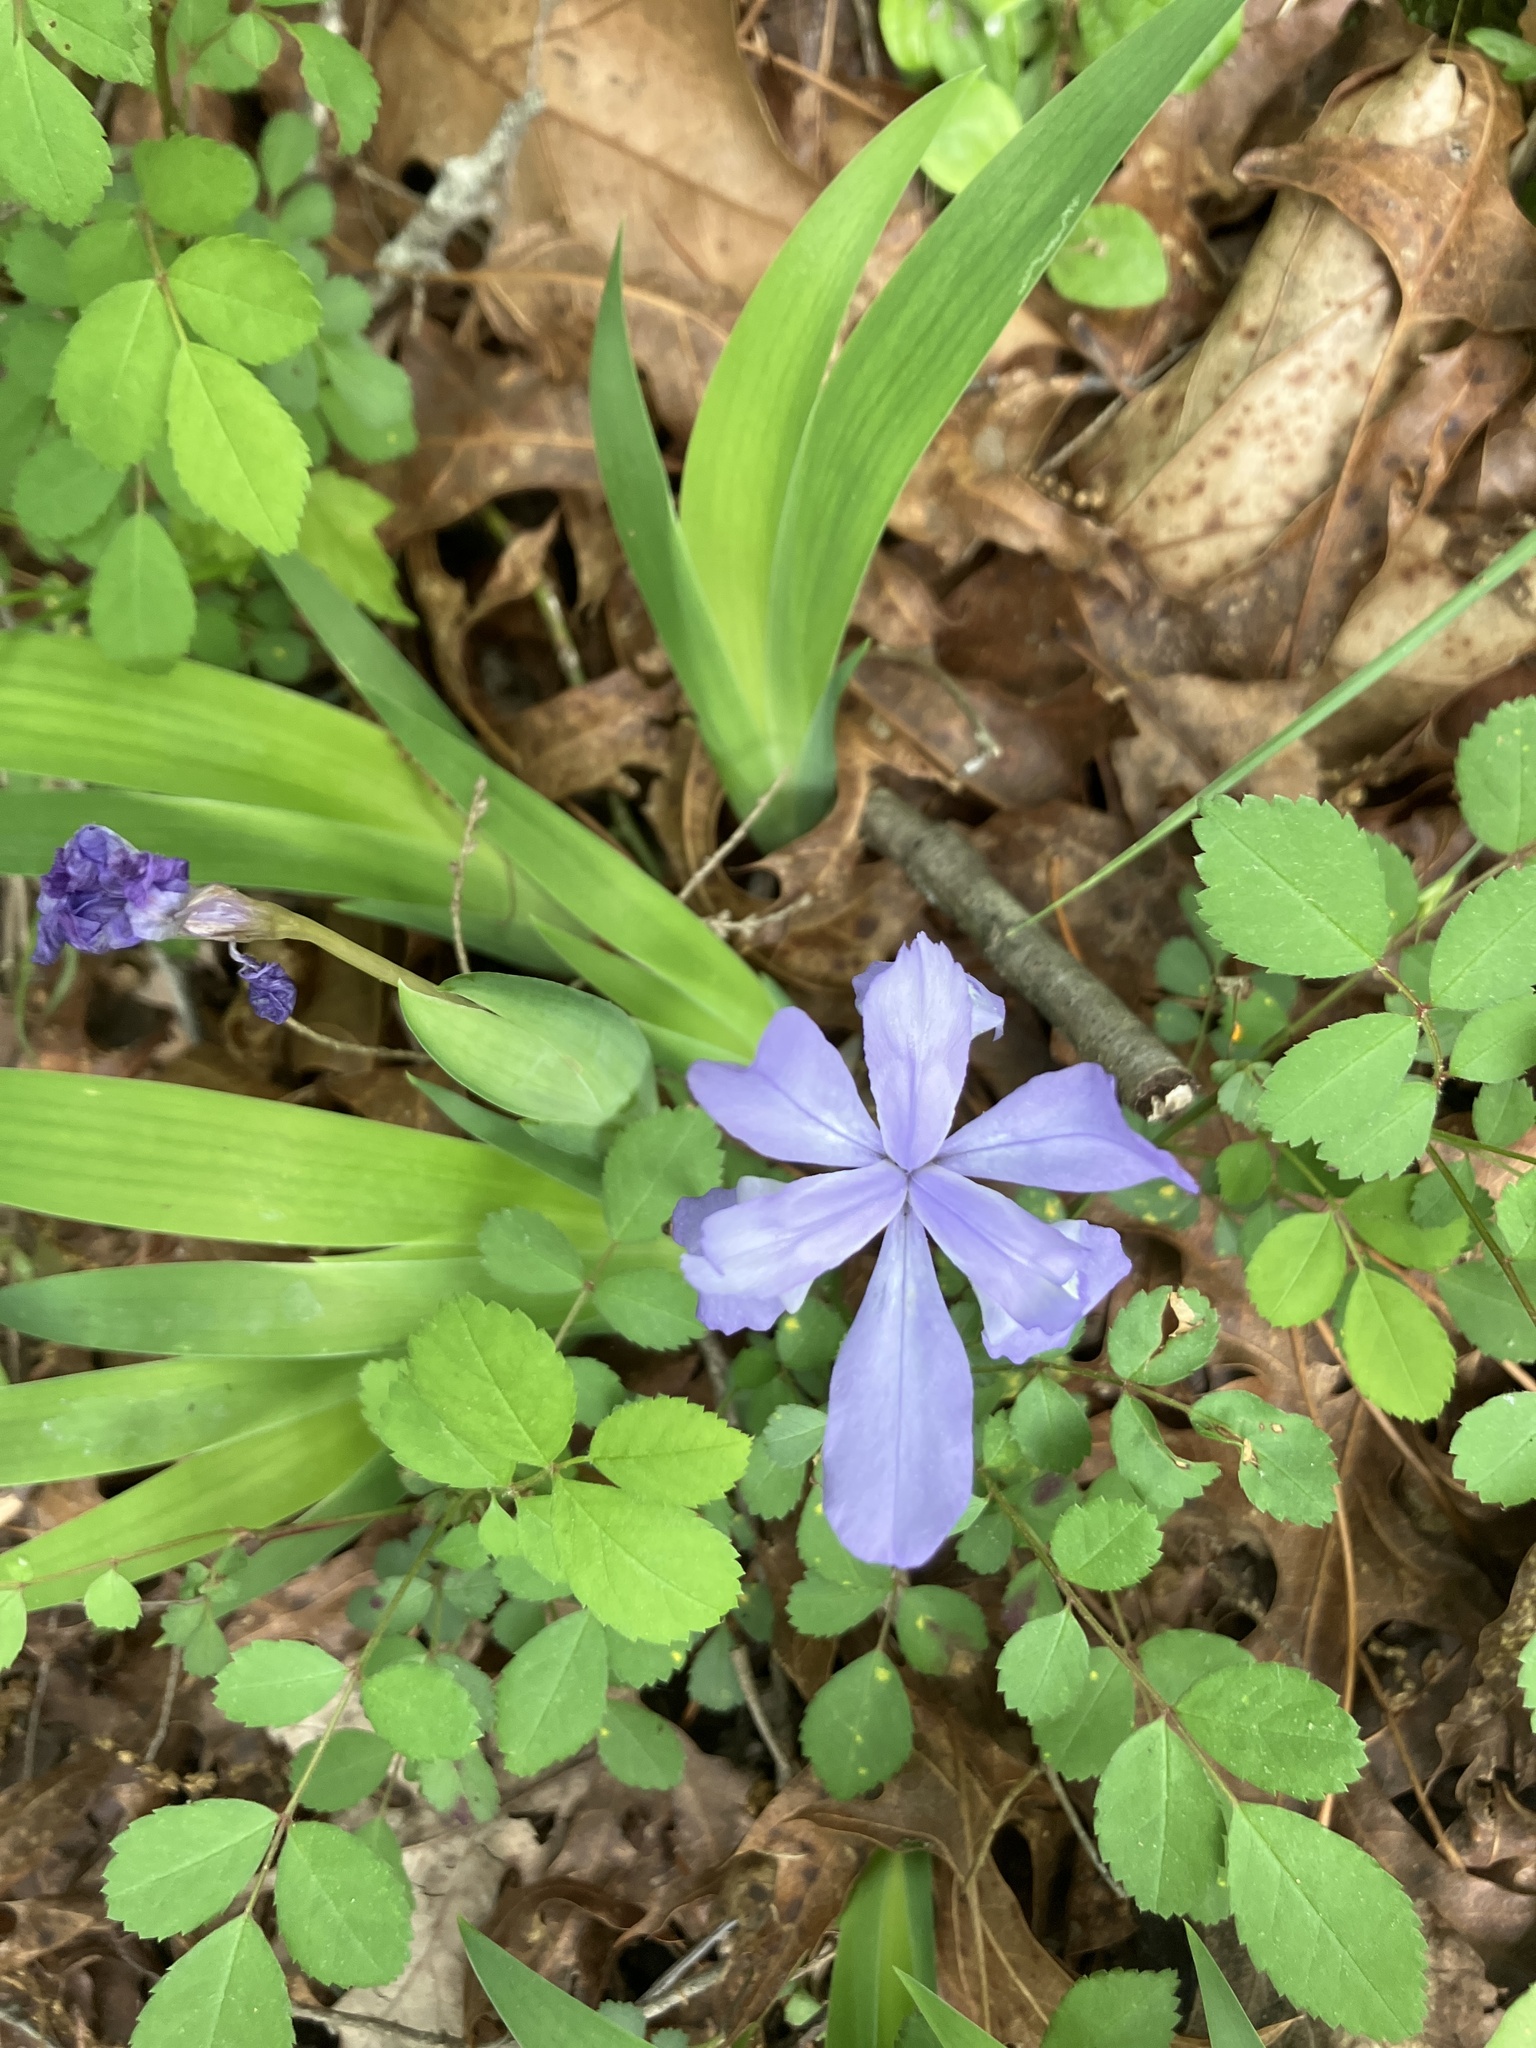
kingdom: Plantae
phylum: Tracheophyta
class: Liliopsida
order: Asparagales
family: Iridaceae
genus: Iris
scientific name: Iris cristata
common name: Crested iris
